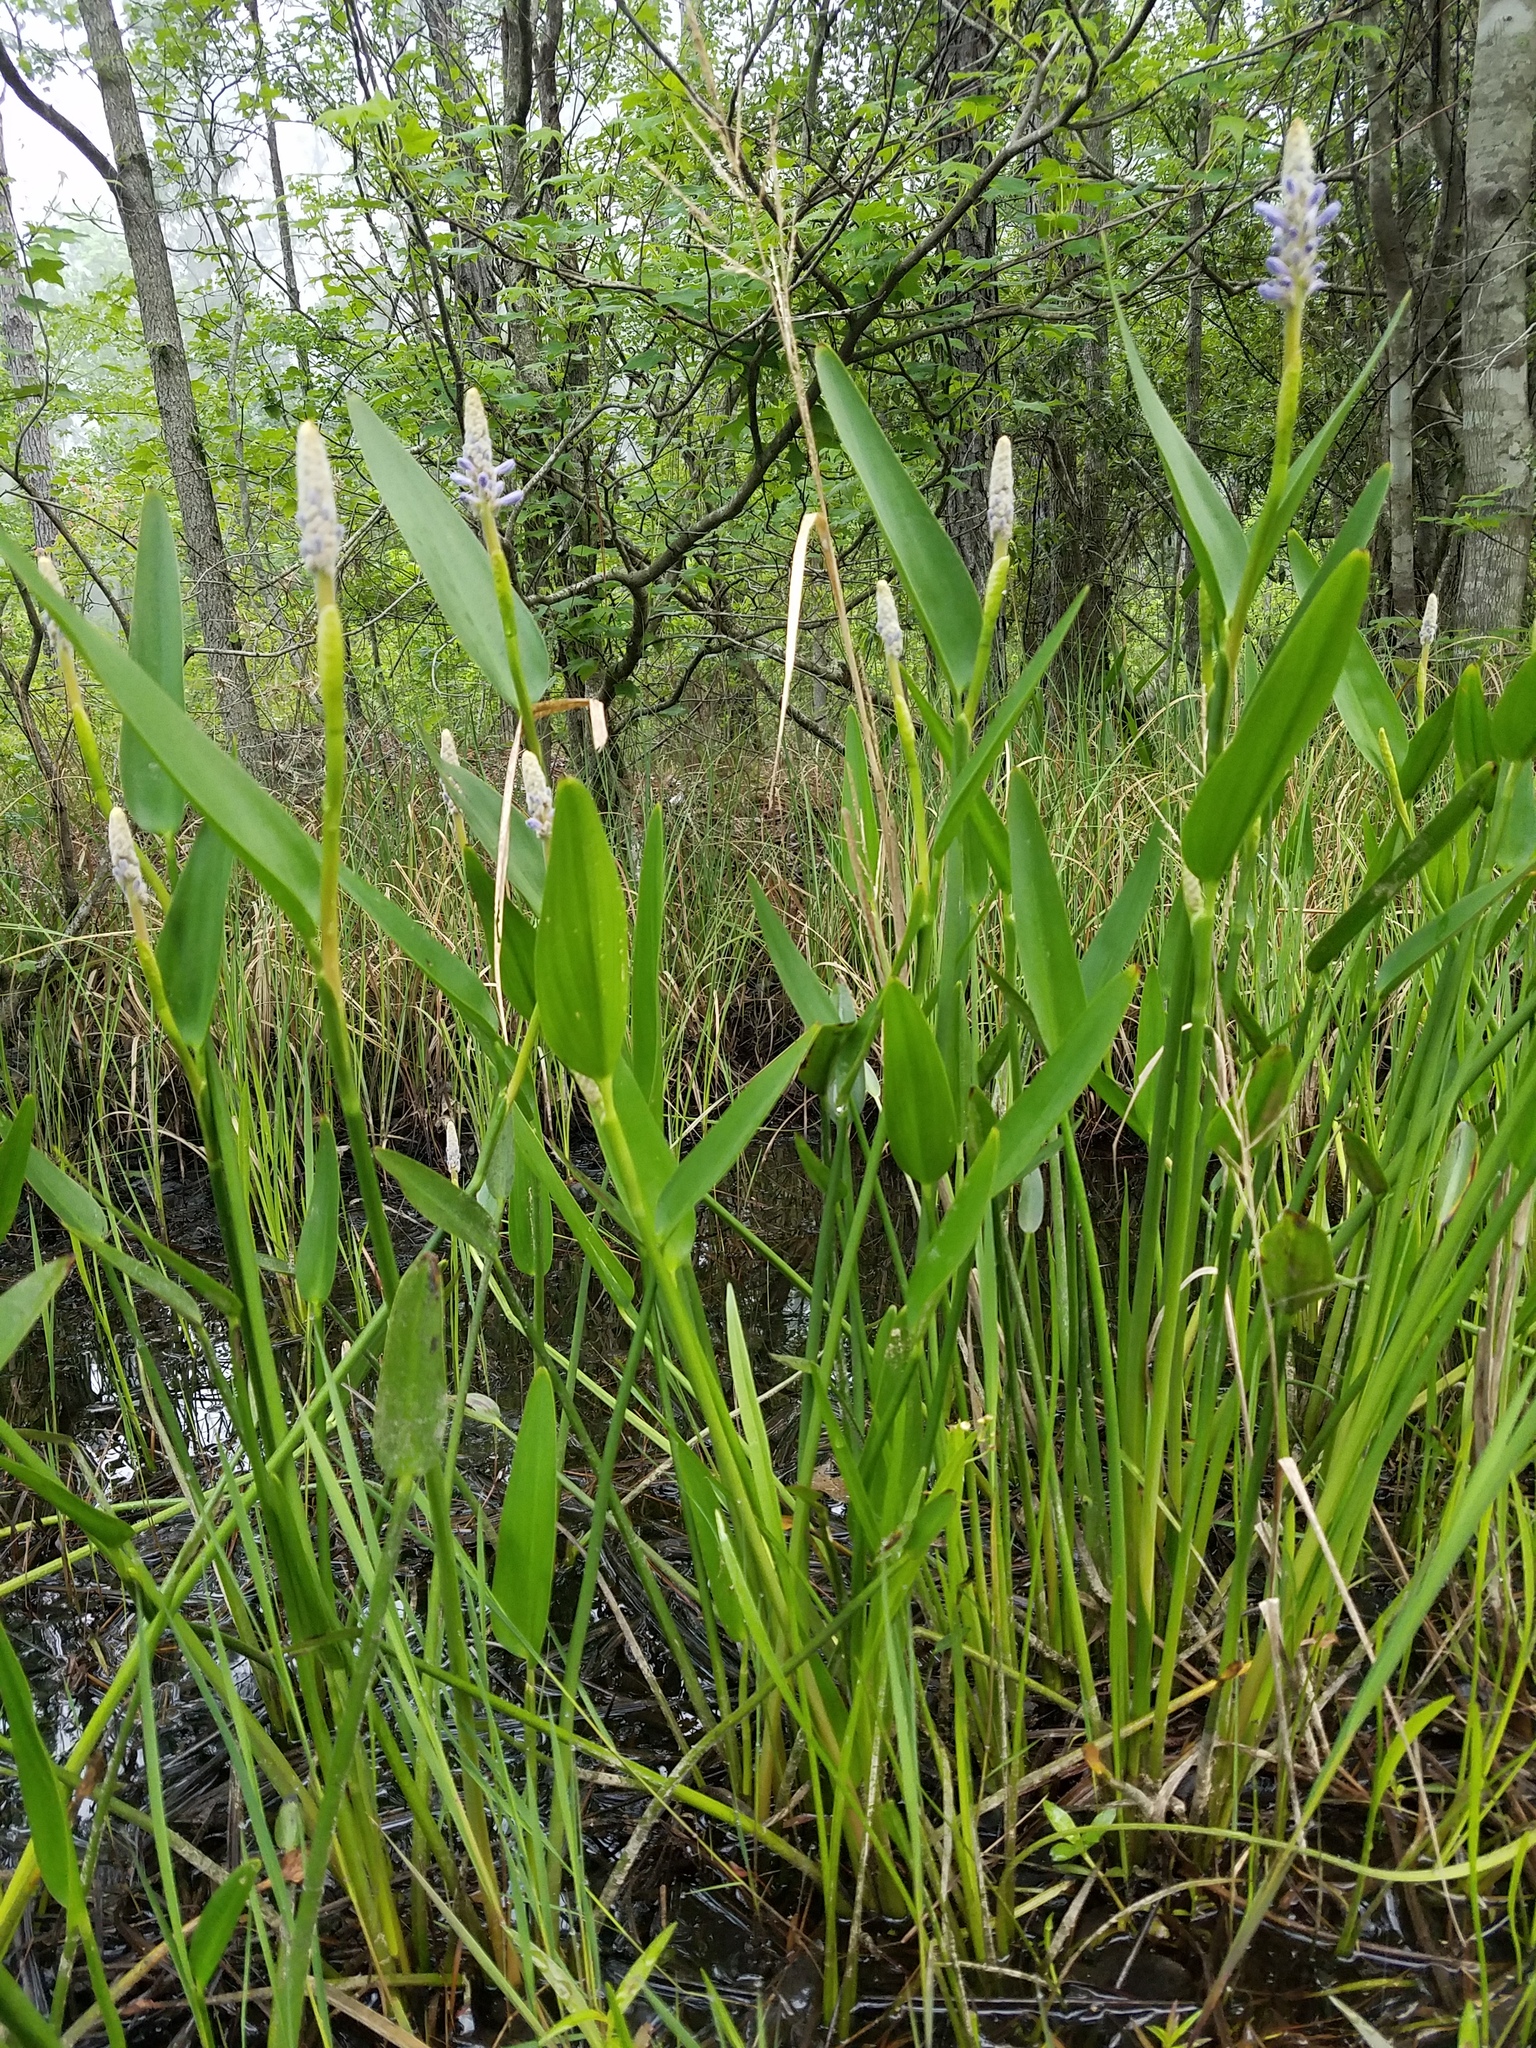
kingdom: Plantae
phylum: Tracheophyta
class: Liliopsida
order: Commelinales
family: Pontederiaceae
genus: Pontederia
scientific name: Pontederia cordata
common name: Pickerelweed
